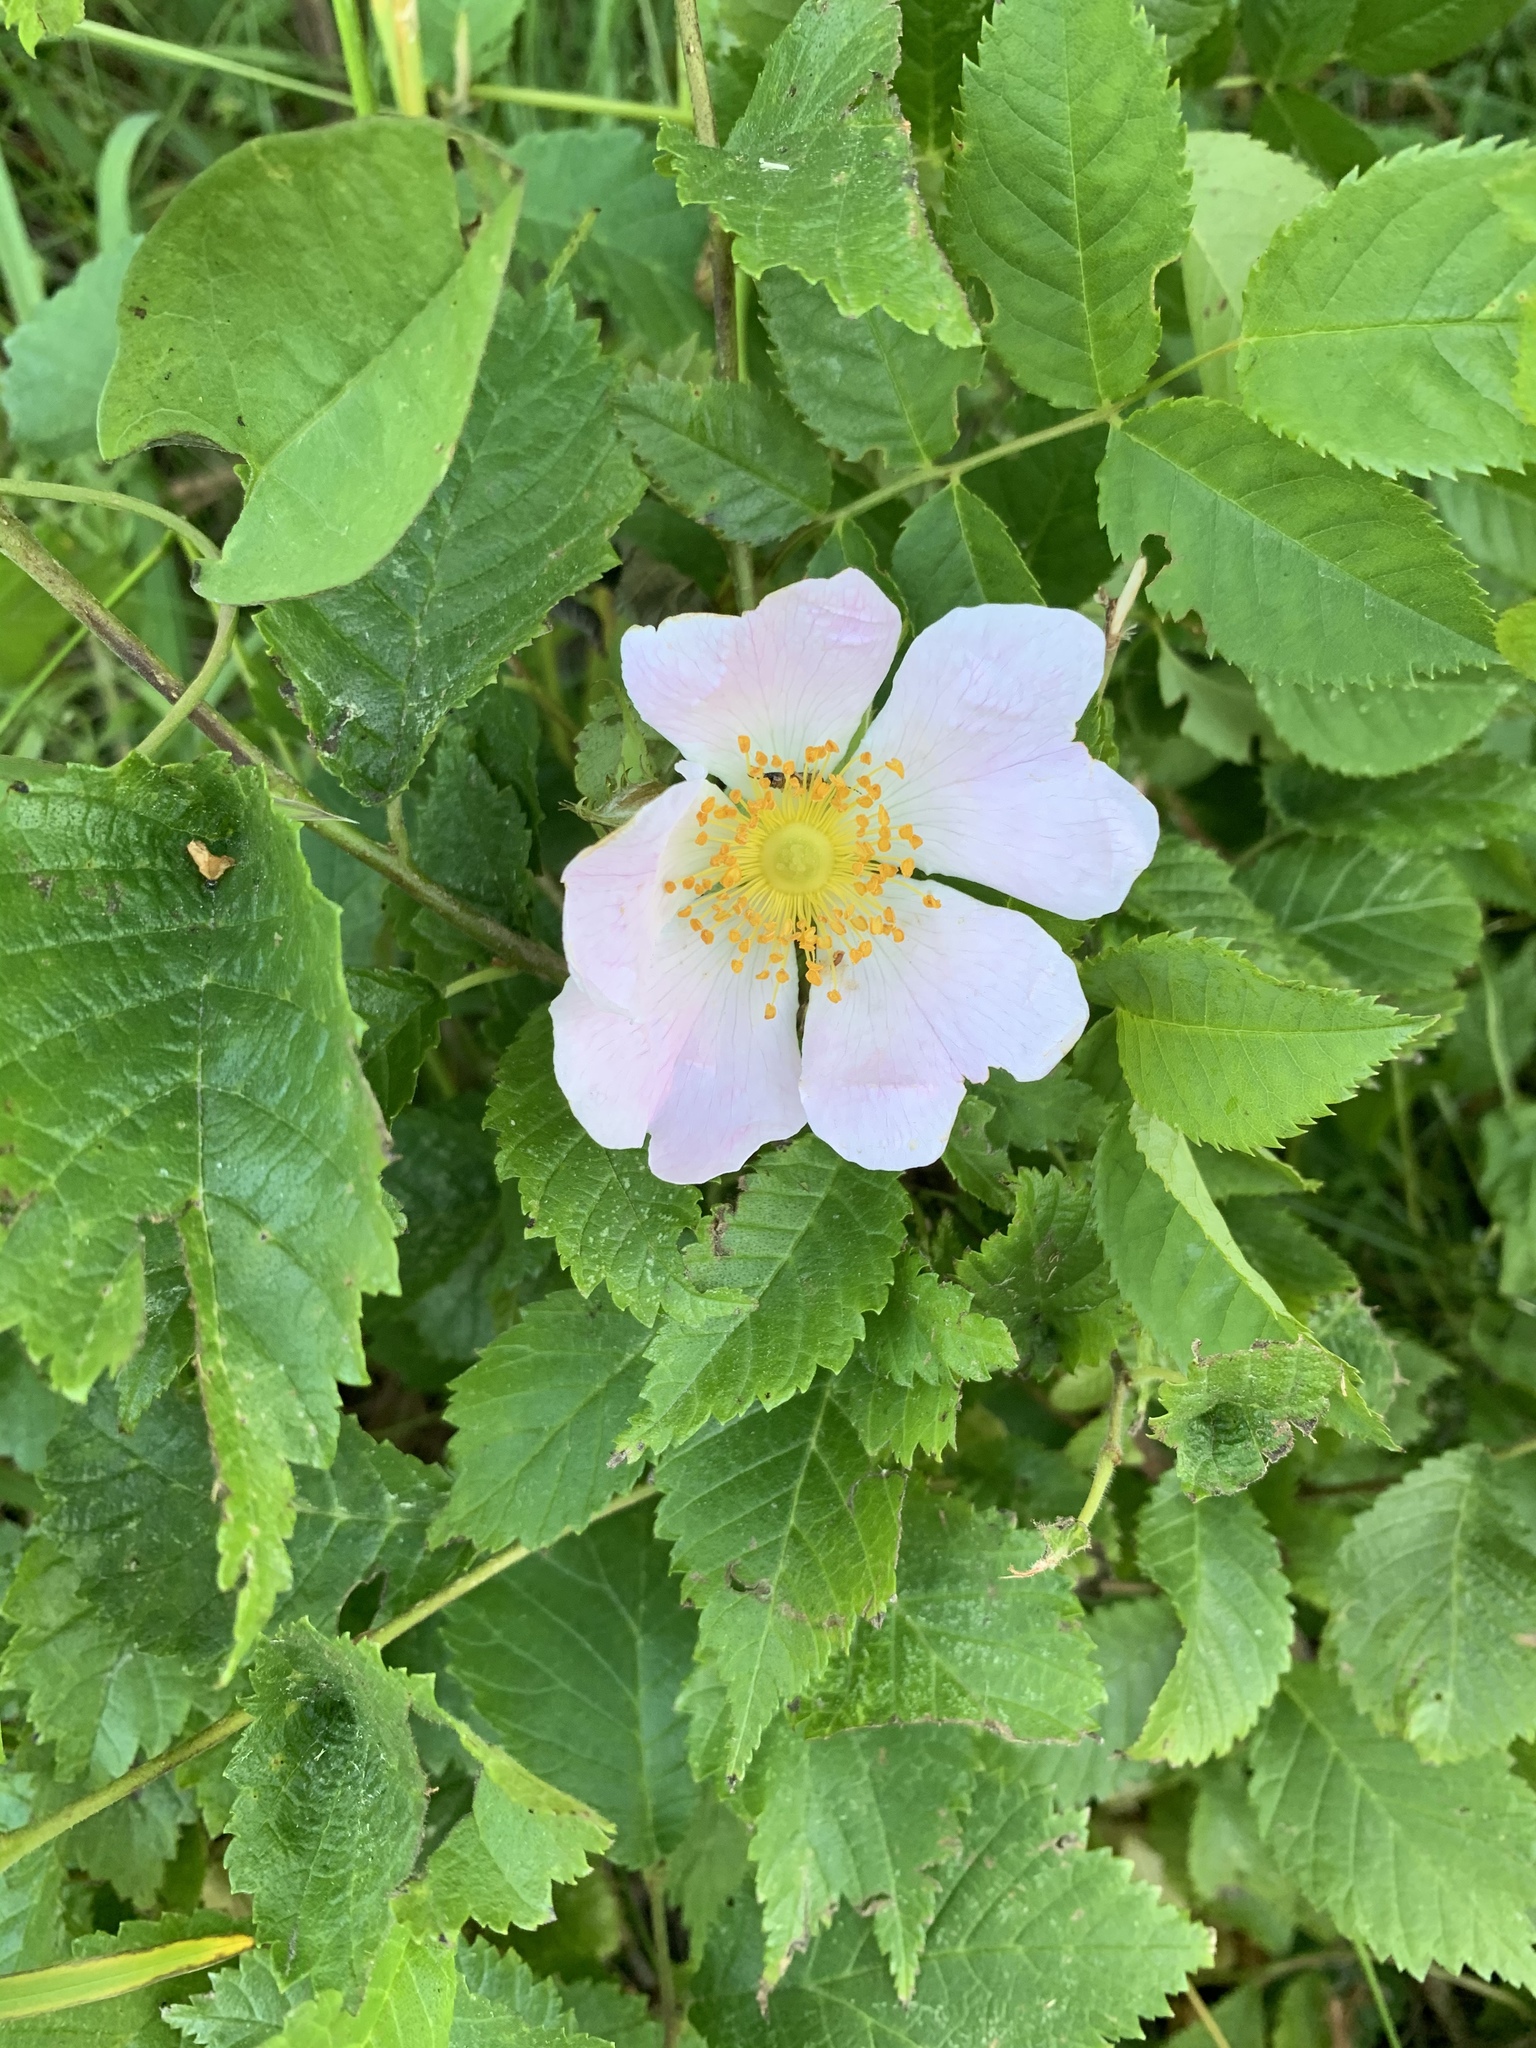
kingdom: Plantae
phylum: Tracheophyta
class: Magnoliopsida
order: Rosales
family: Rosaceae
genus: Rosa
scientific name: Rosa canina
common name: Dog rose
